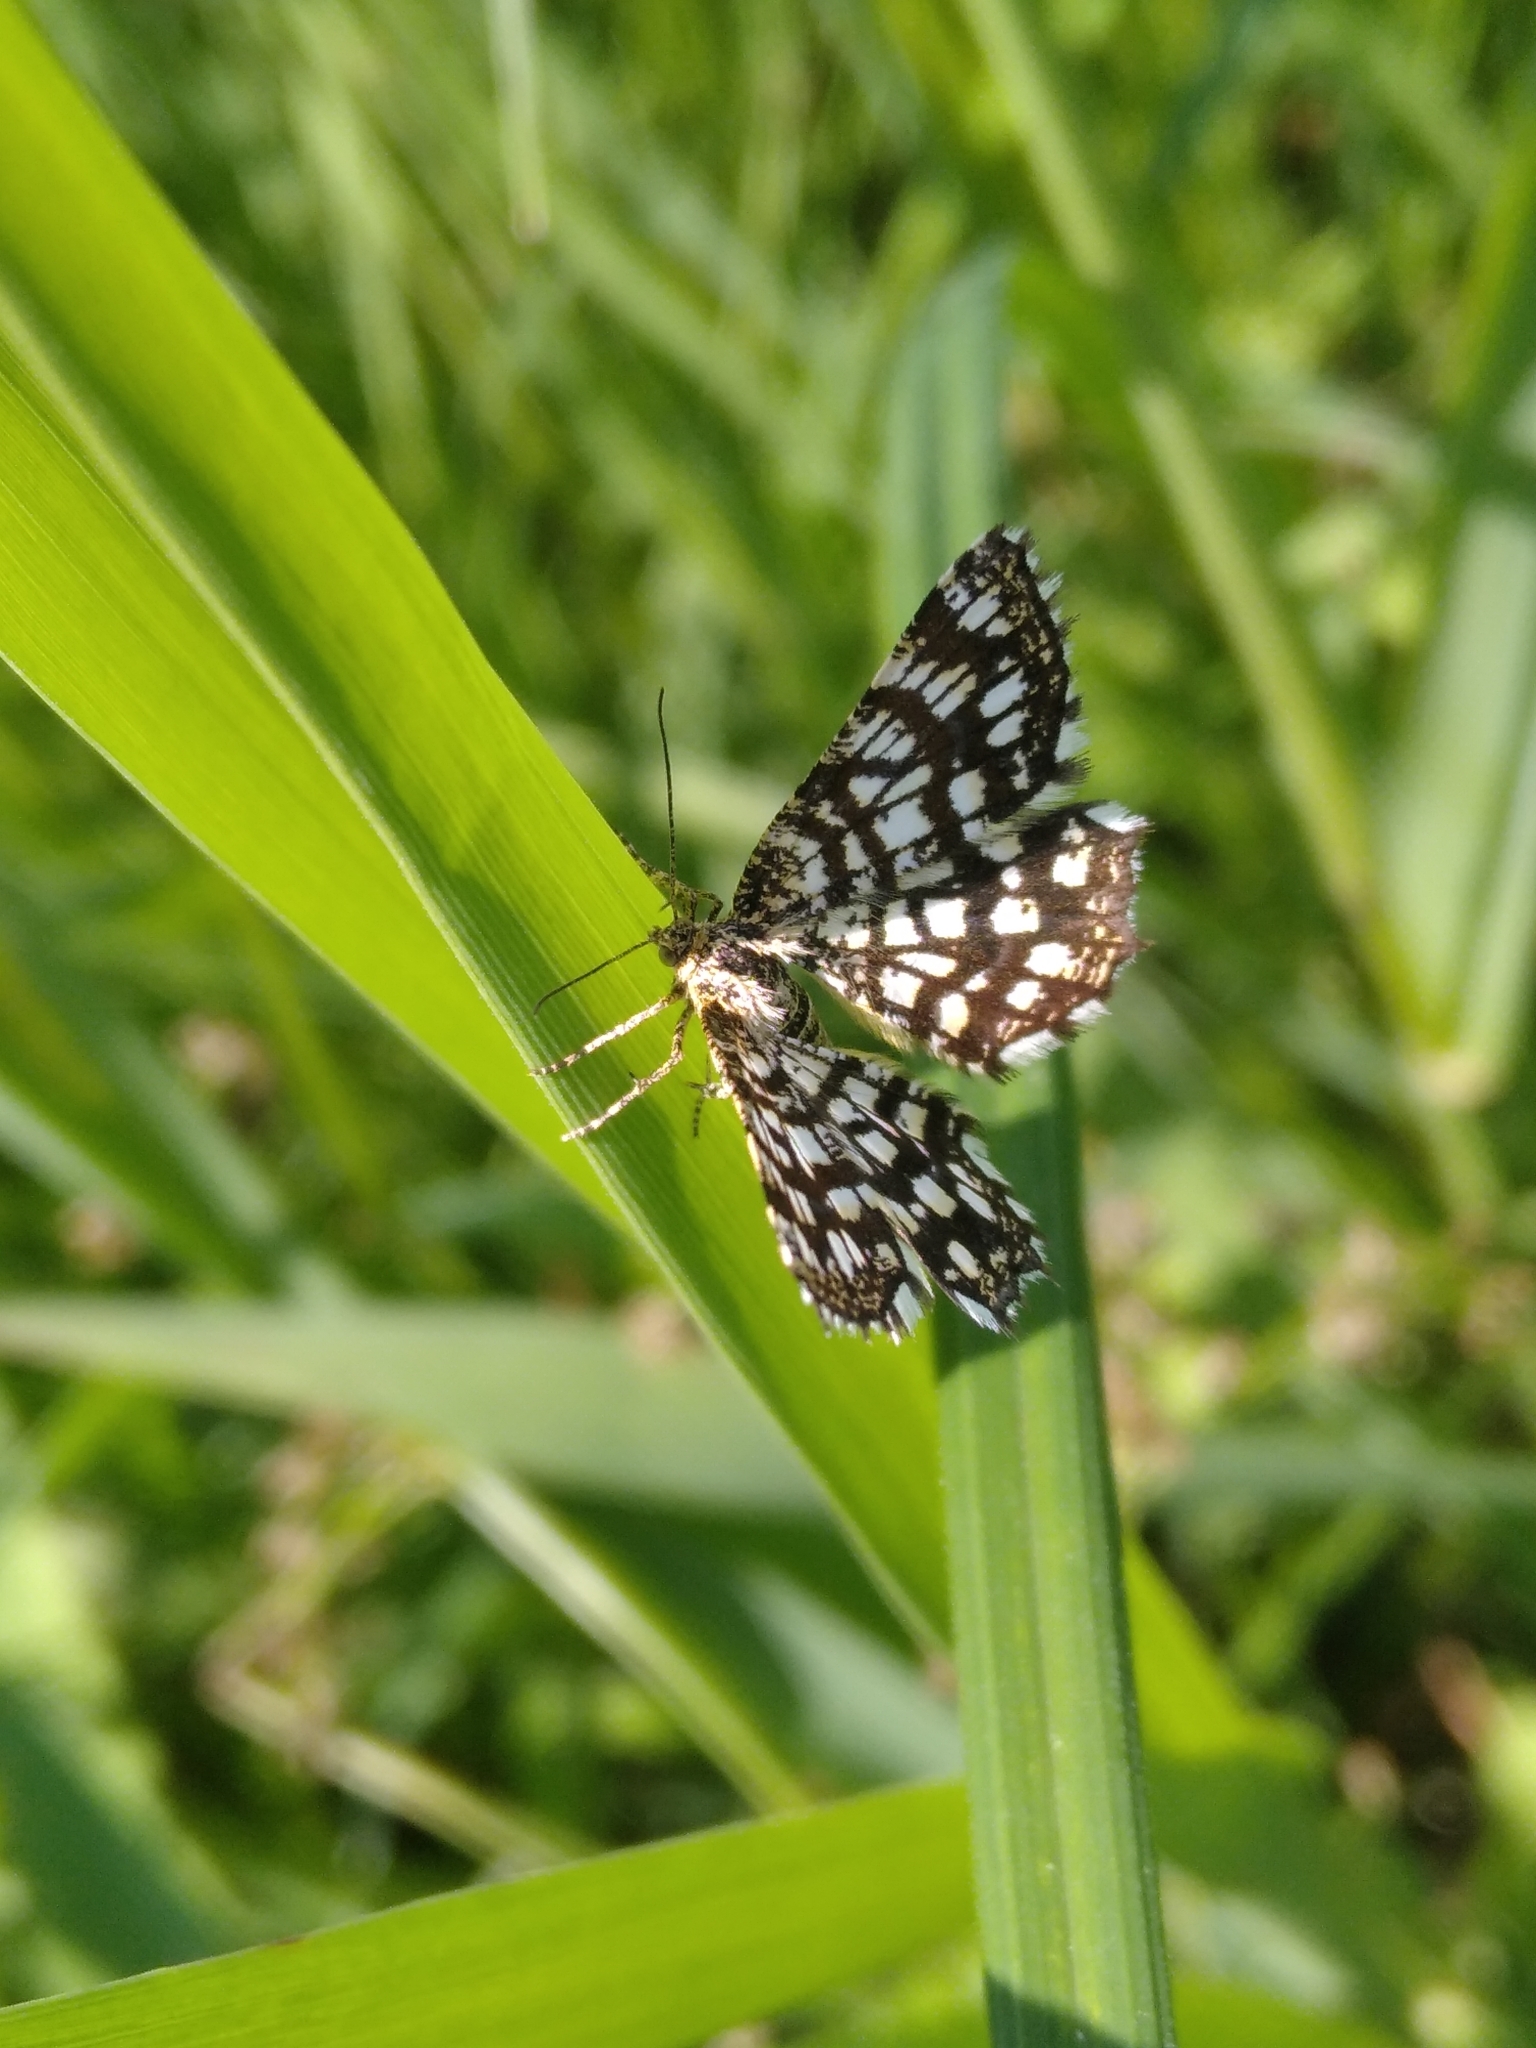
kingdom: Animalia
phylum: Arthropoda
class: Insecta
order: Lepidoptera
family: Geometridae
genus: Chiasmia
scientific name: Chiasmia clathrata
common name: Latticed heath
